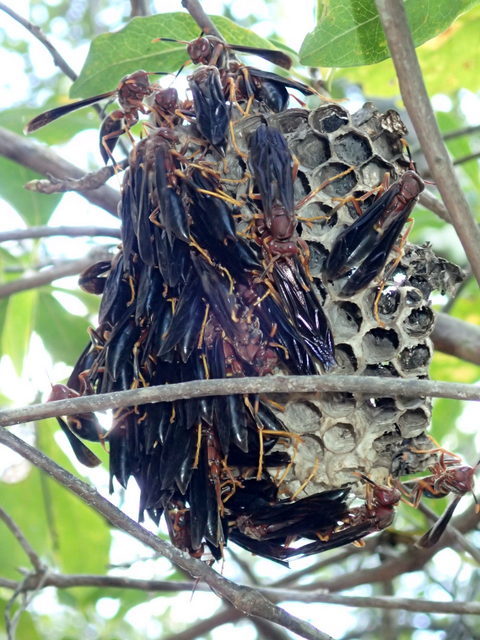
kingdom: Animalia
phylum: Arthropoda
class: Insecta
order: Hymenoptera
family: Eumenidae
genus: Polistes
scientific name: Polistes annularis
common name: Ringed paper wasp
